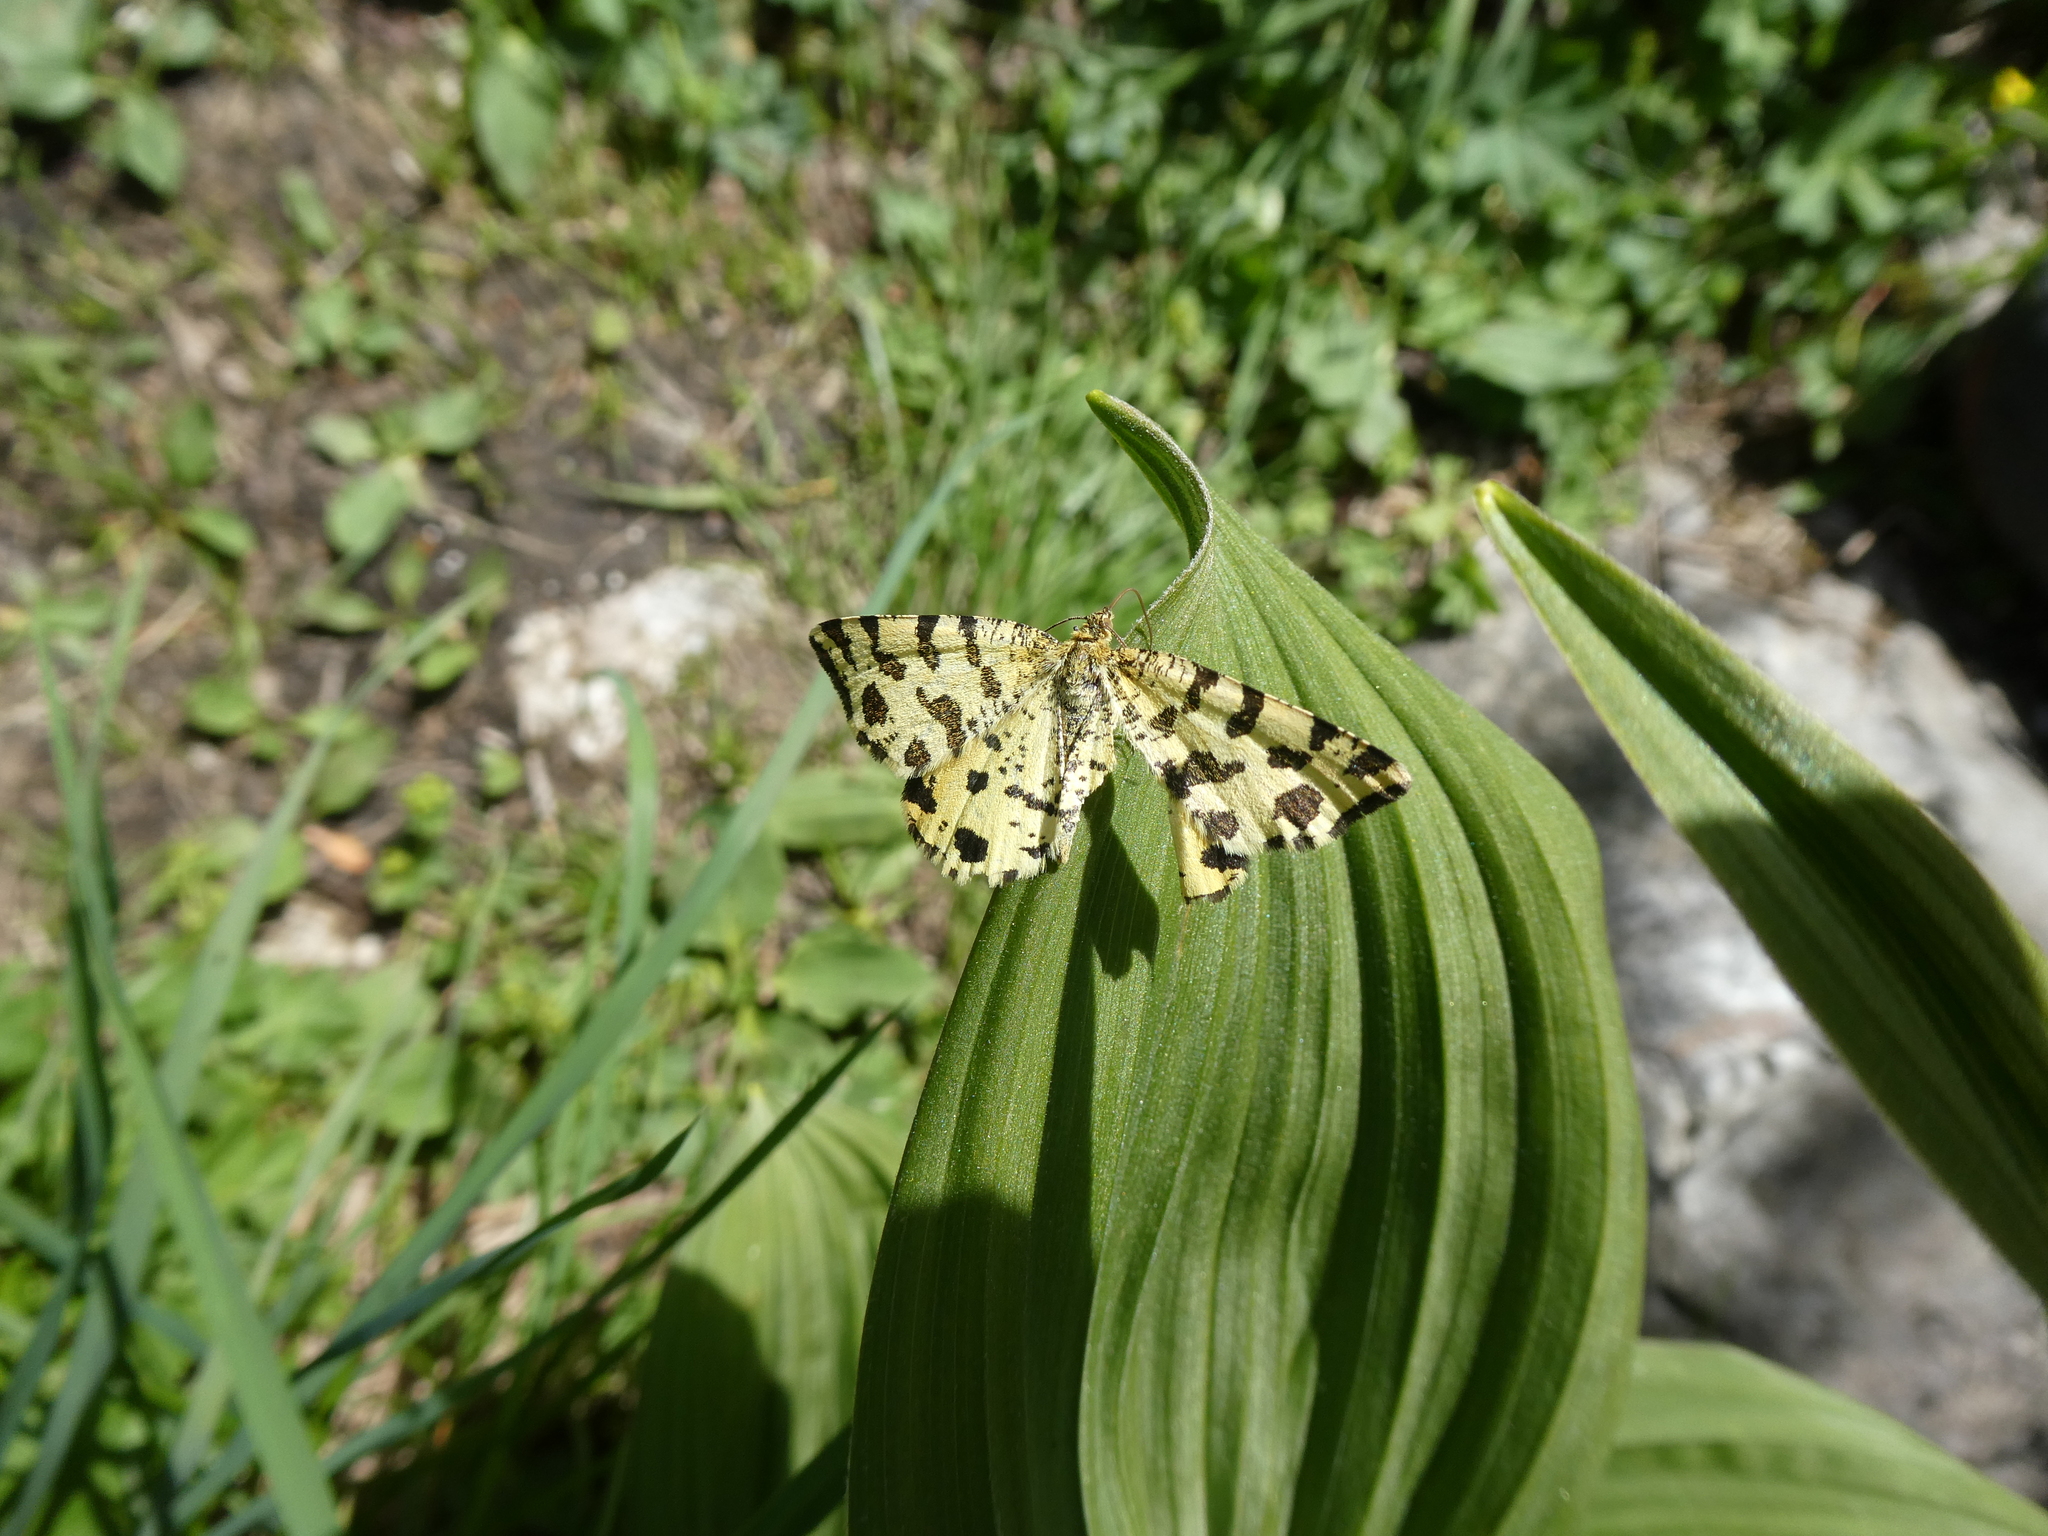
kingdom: Animalia
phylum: Arthropoda
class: Insecta
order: Lepidoptera
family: Geometridae
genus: Pseudopanthera
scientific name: Pseudopanthera macularia
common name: Speckled yellow
